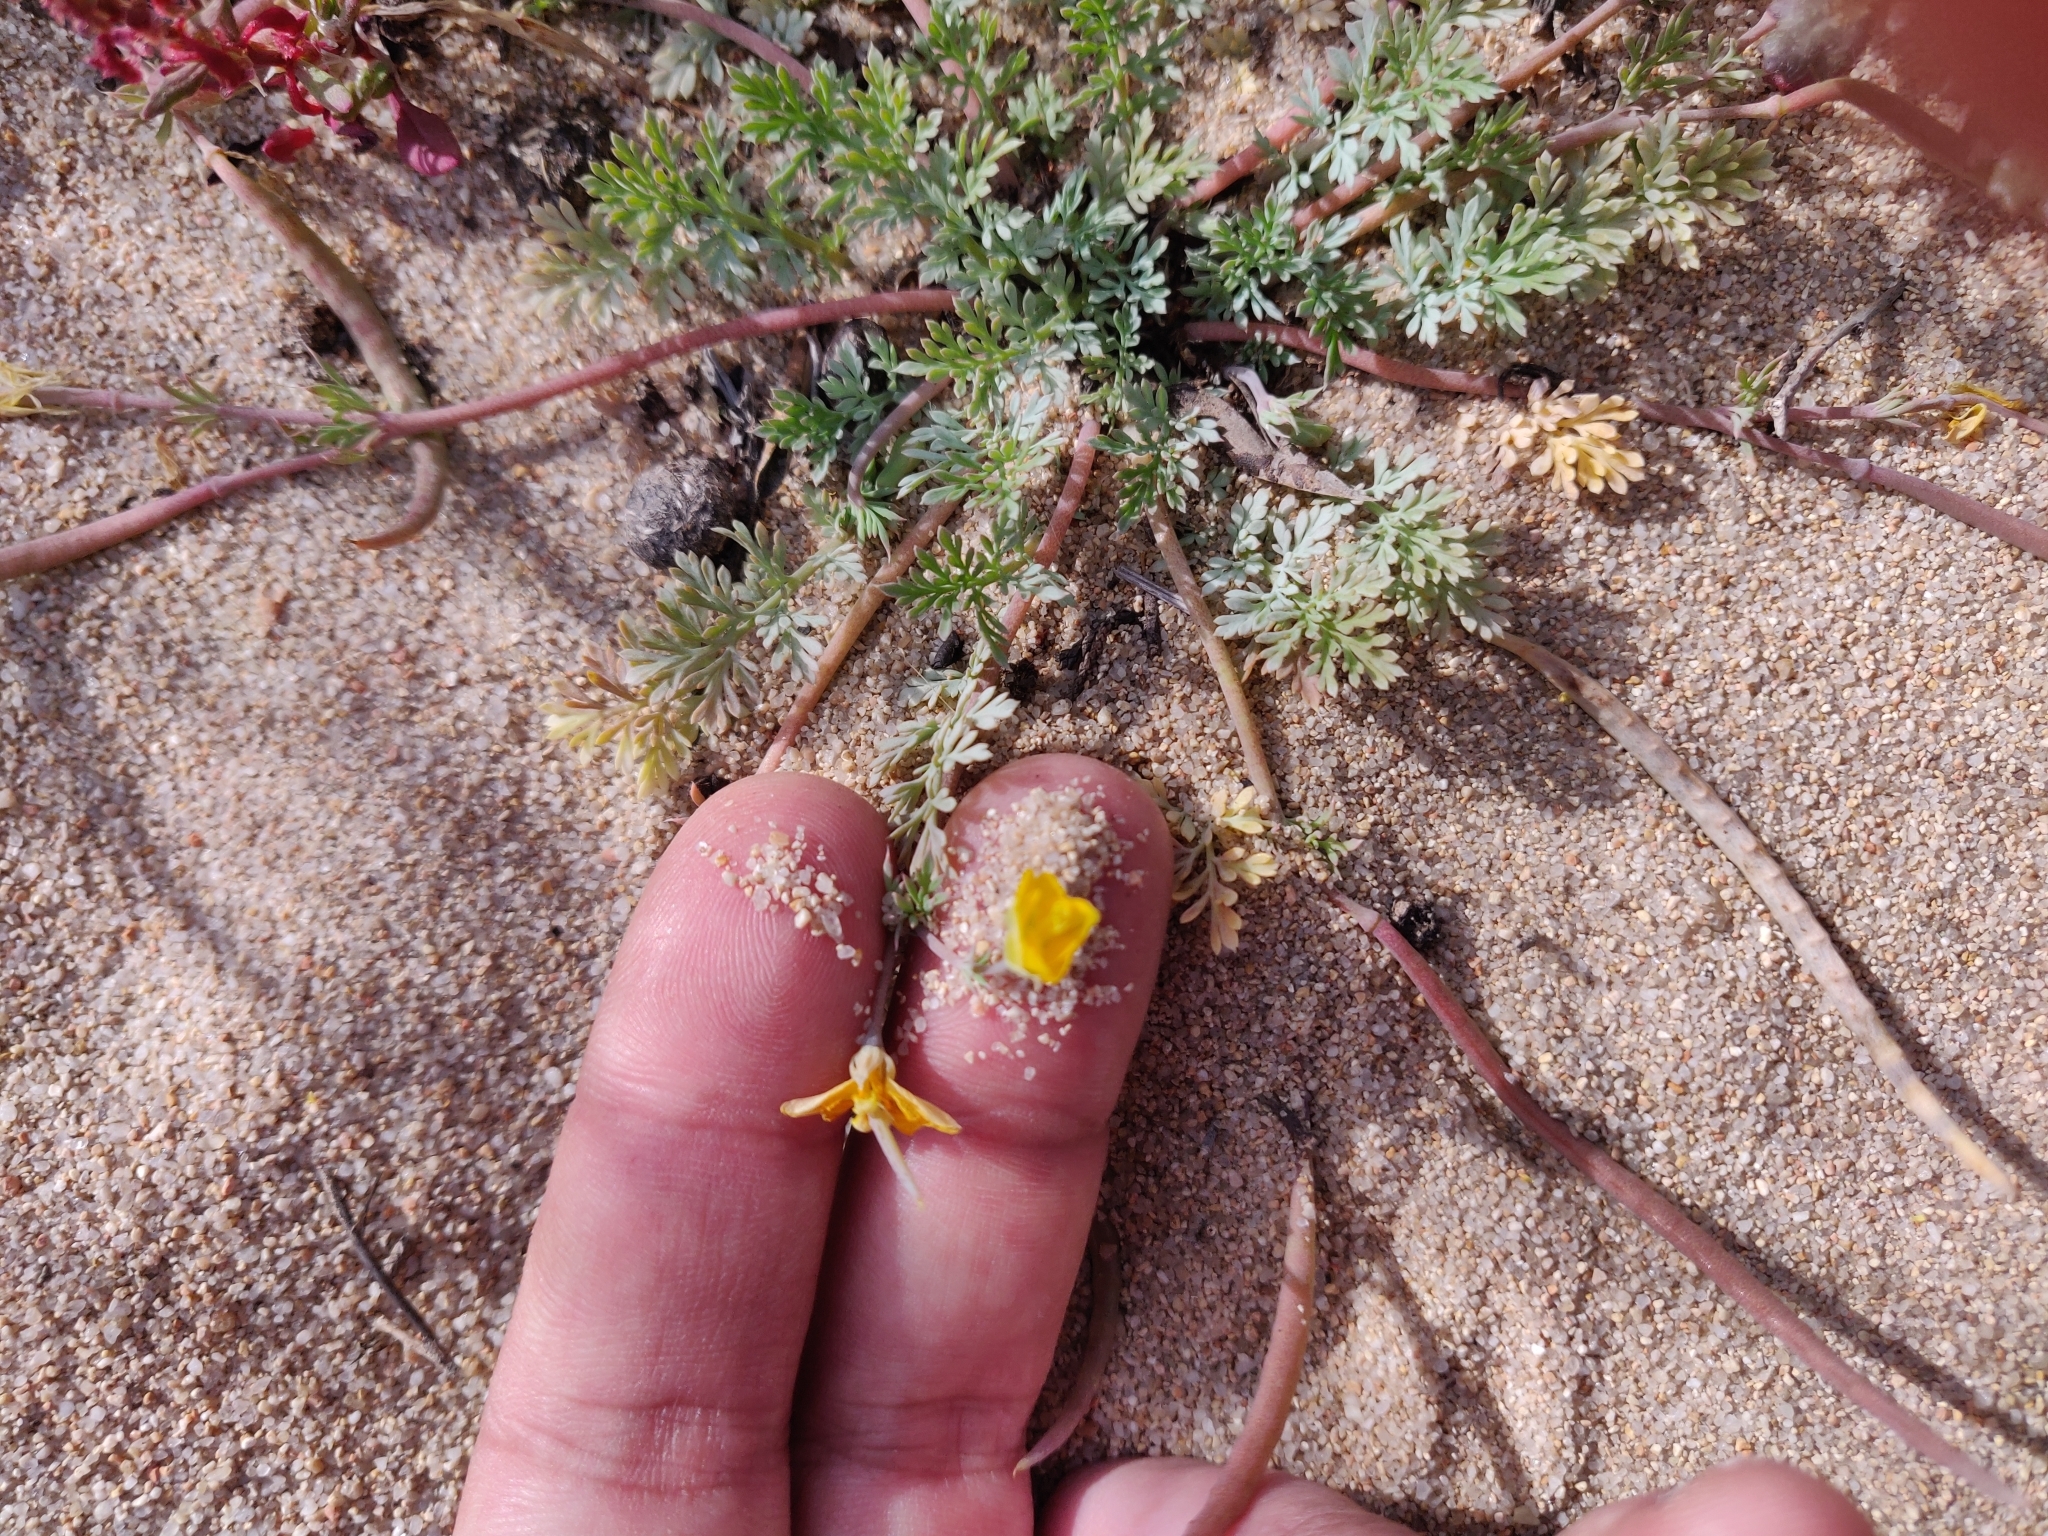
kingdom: Plantae
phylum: Tracheophyta
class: Magnoliopsida
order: Ranunculales
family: Papaveraceae
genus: Hypecoum
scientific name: Hypecoum procumbens
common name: Procumbent hypecoum
